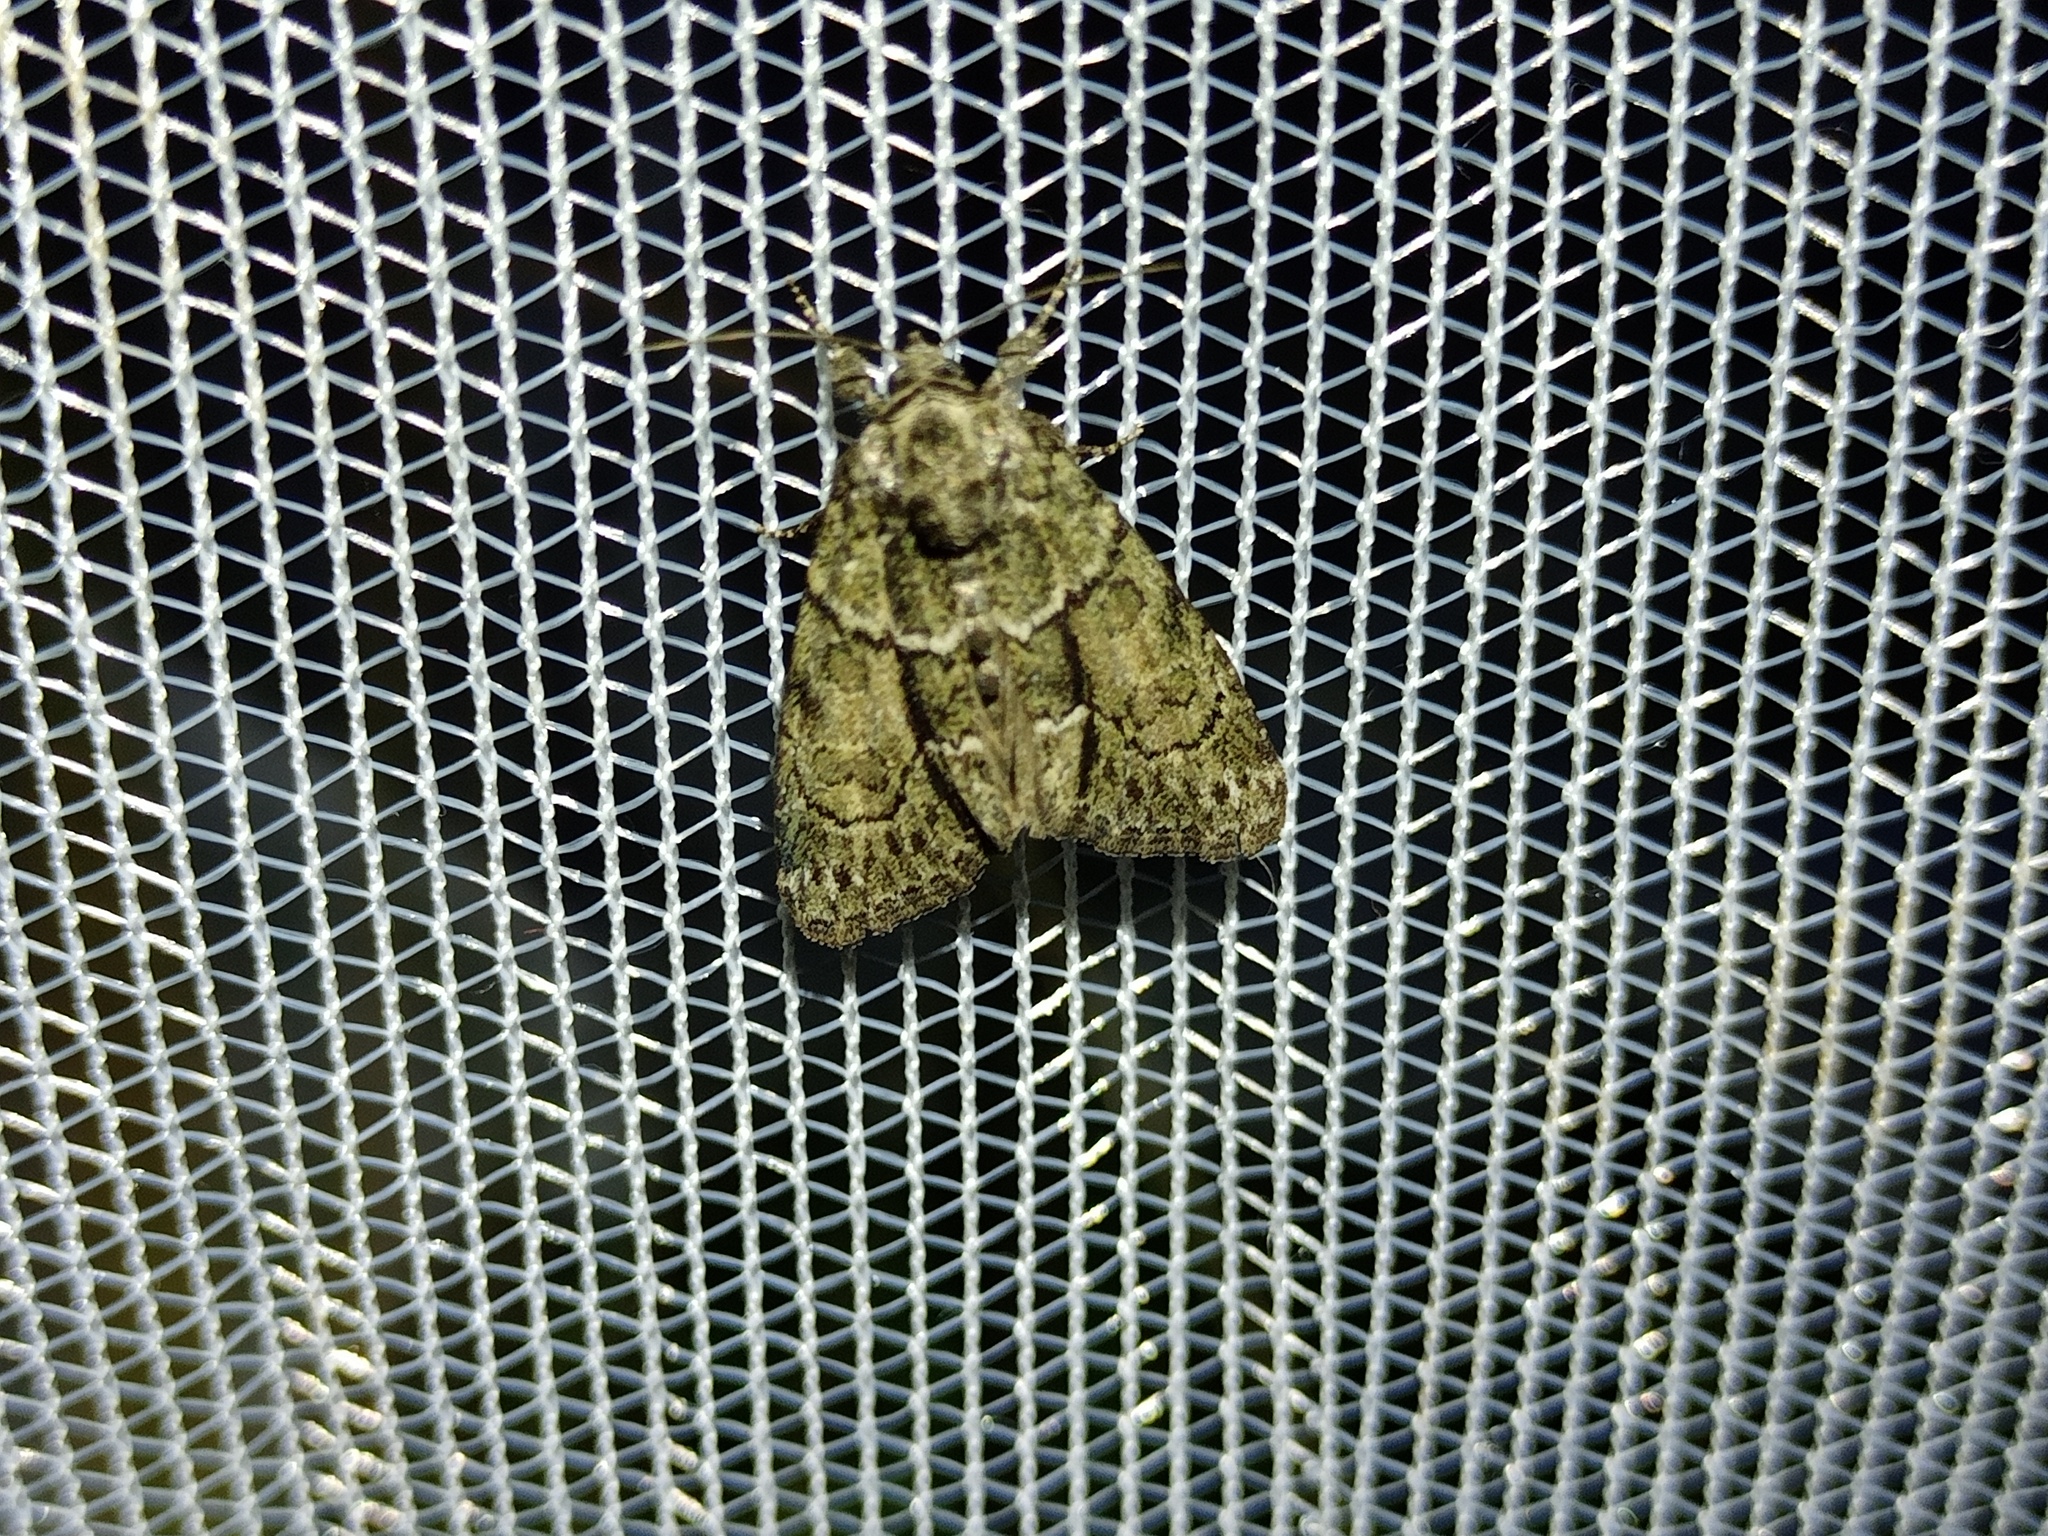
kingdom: Animalia
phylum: Arthropoda
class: Insecta
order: Lepidoptera
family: Noctuidae
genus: Cryphia
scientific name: Cryphia fraudatricula
